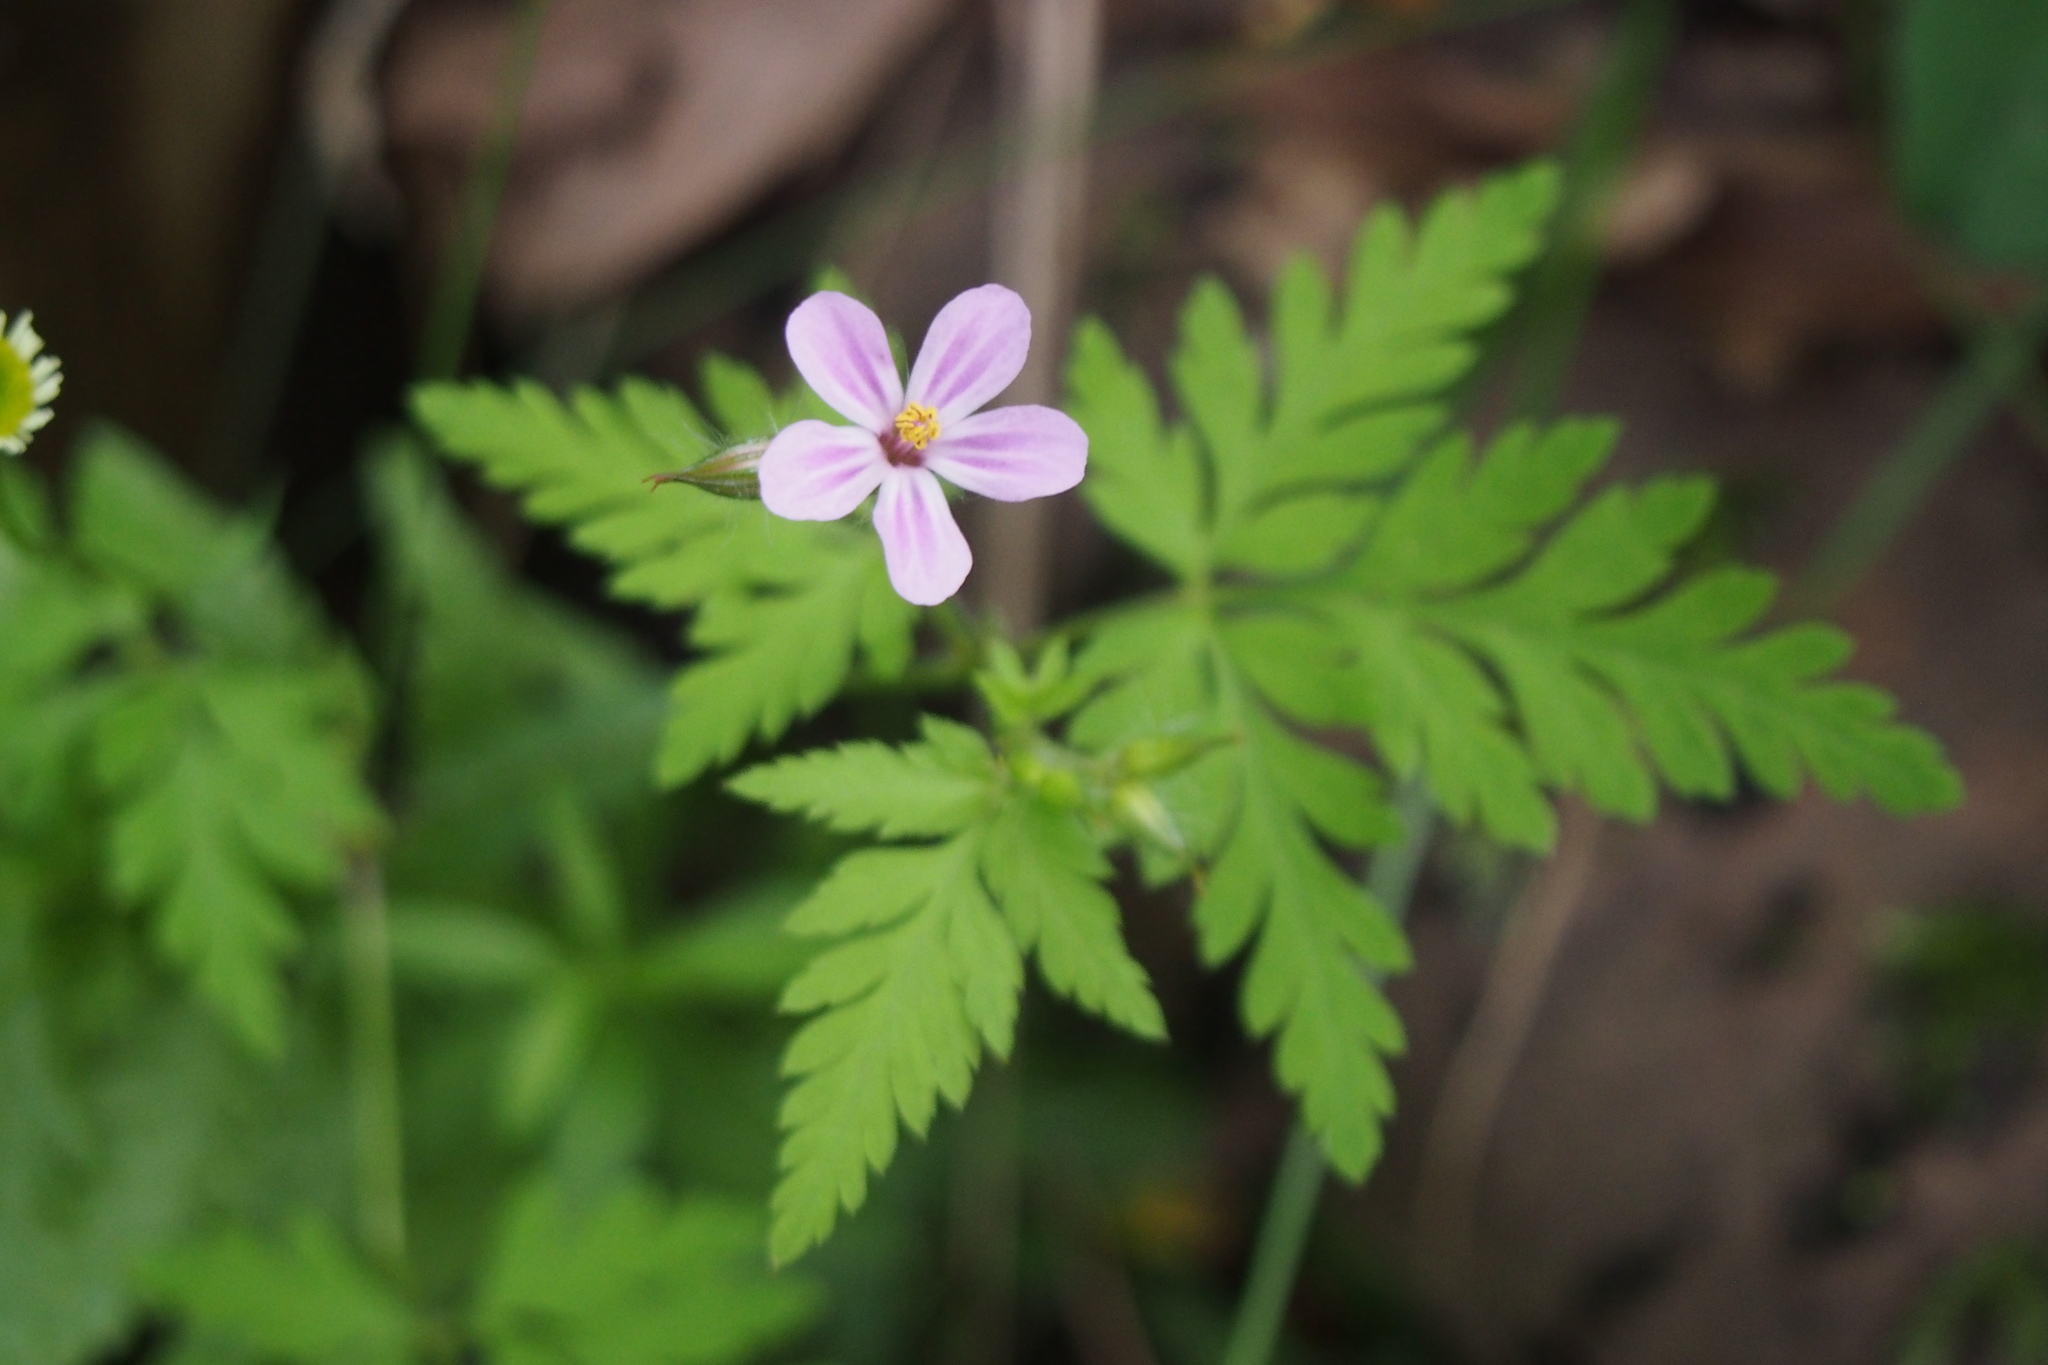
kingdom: Plantae
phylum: Tracheophyta
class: Magnoliopsida
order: Geraniales
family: Geraniaceae
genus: Geranium
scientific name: Geranium robertianum
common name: Herb-robert
